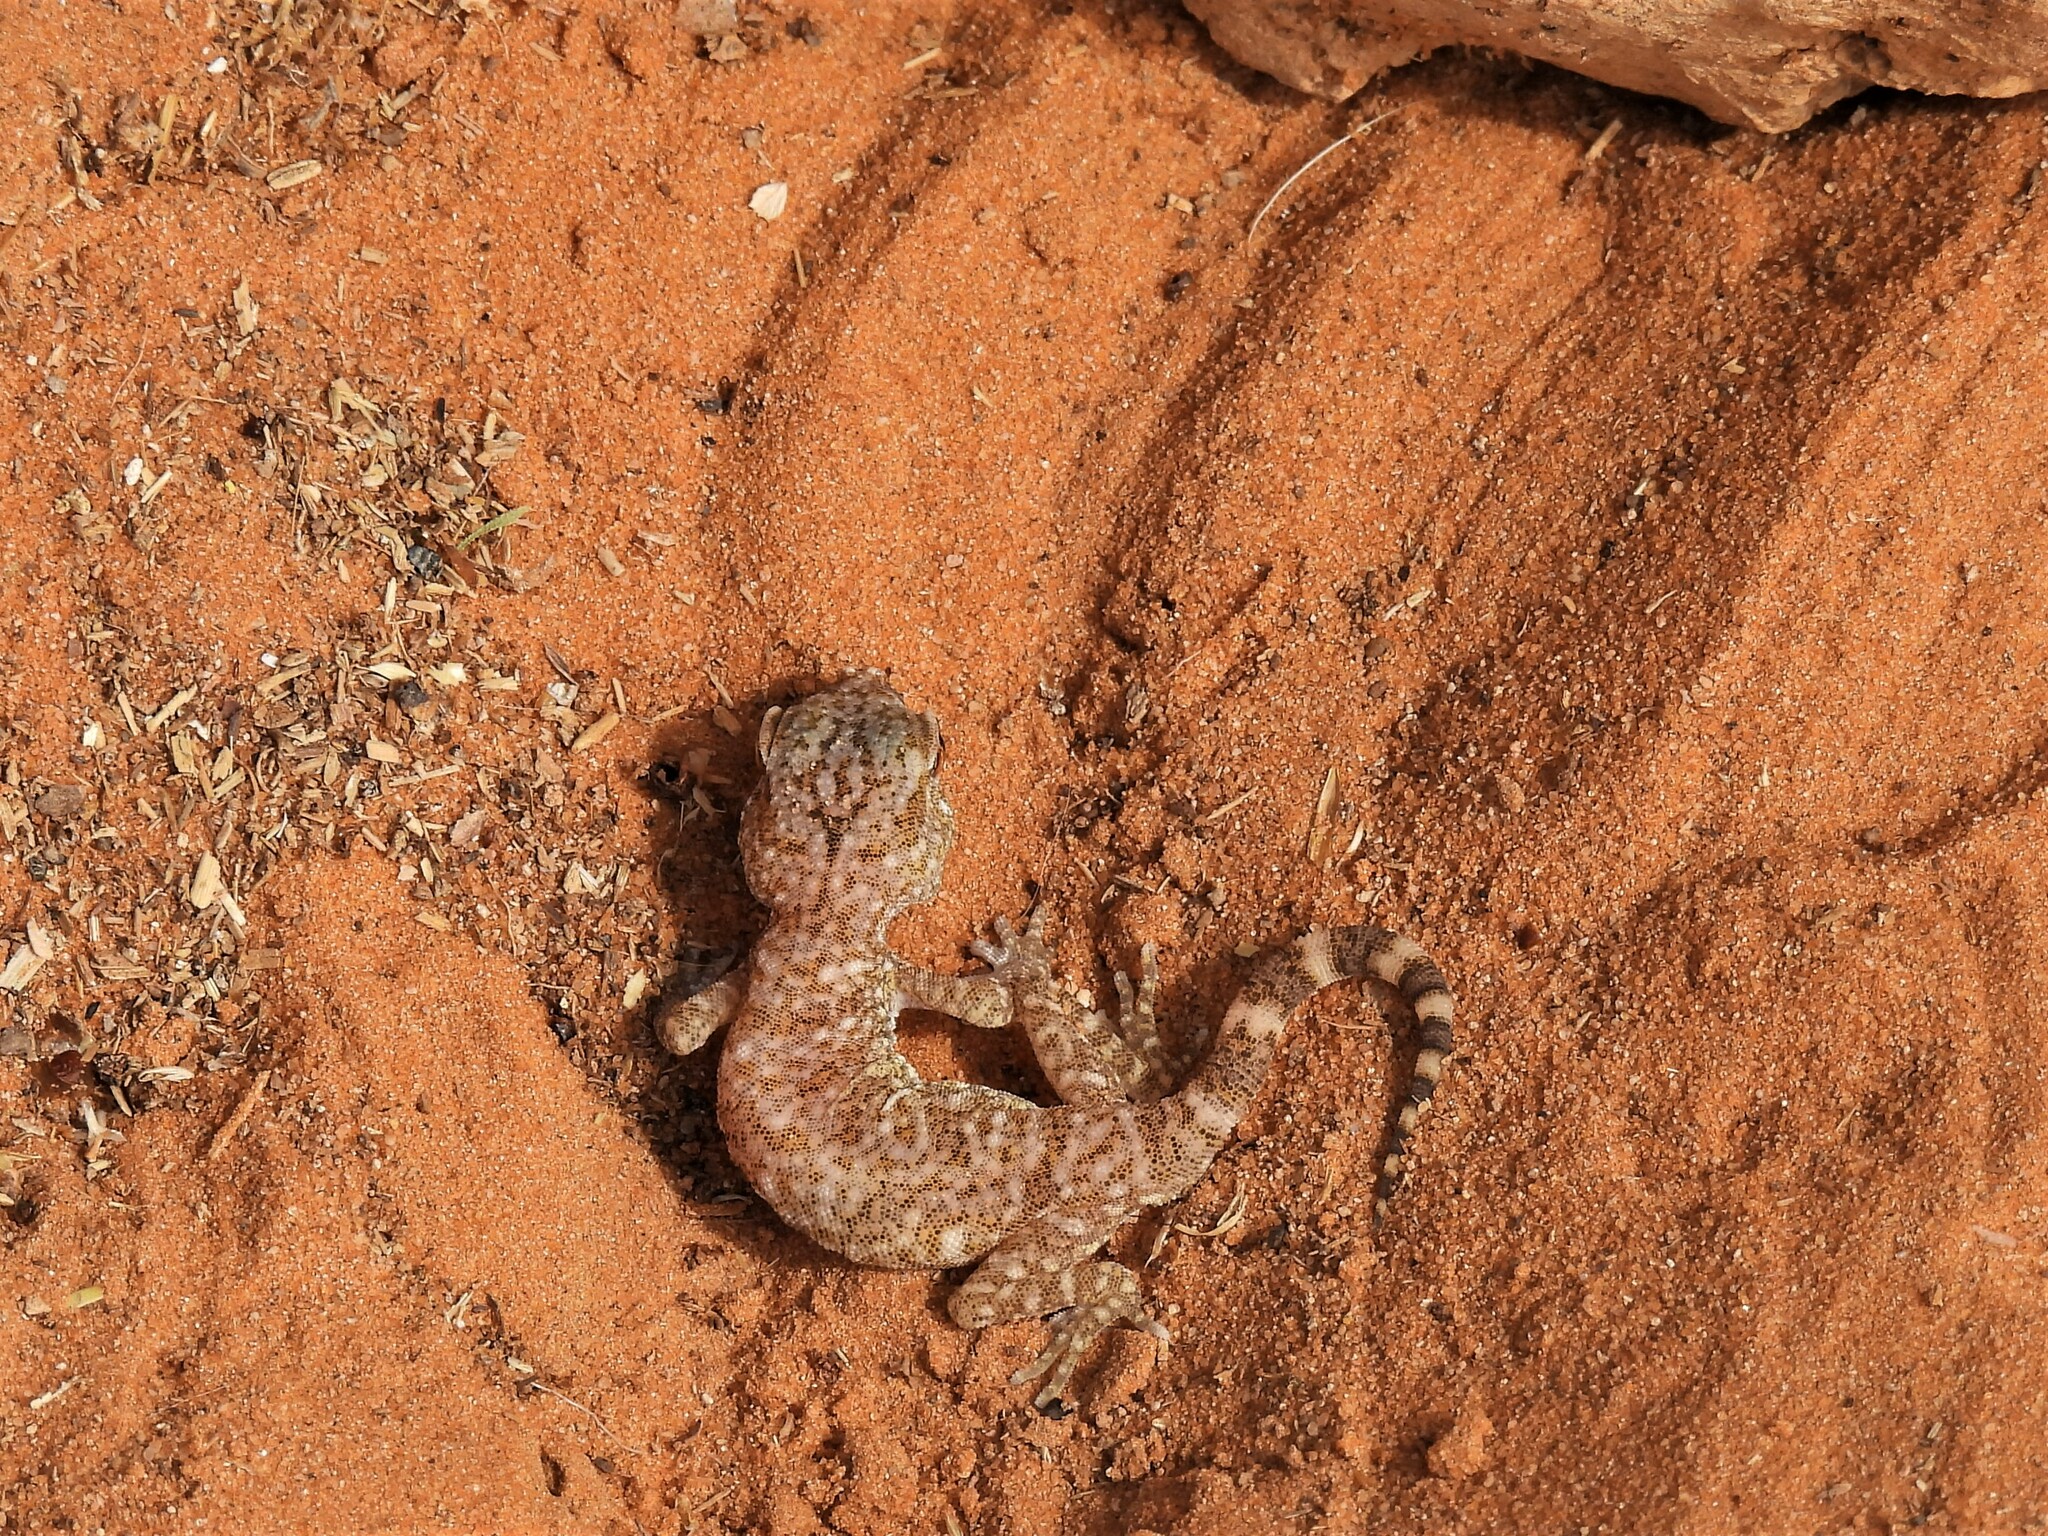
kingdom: Animalia
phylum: Chordata
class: Squamata
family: Gekkonidae
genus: Stenodactylus
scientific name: Stenodactylus slevini
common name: Slevin's sand gecko
